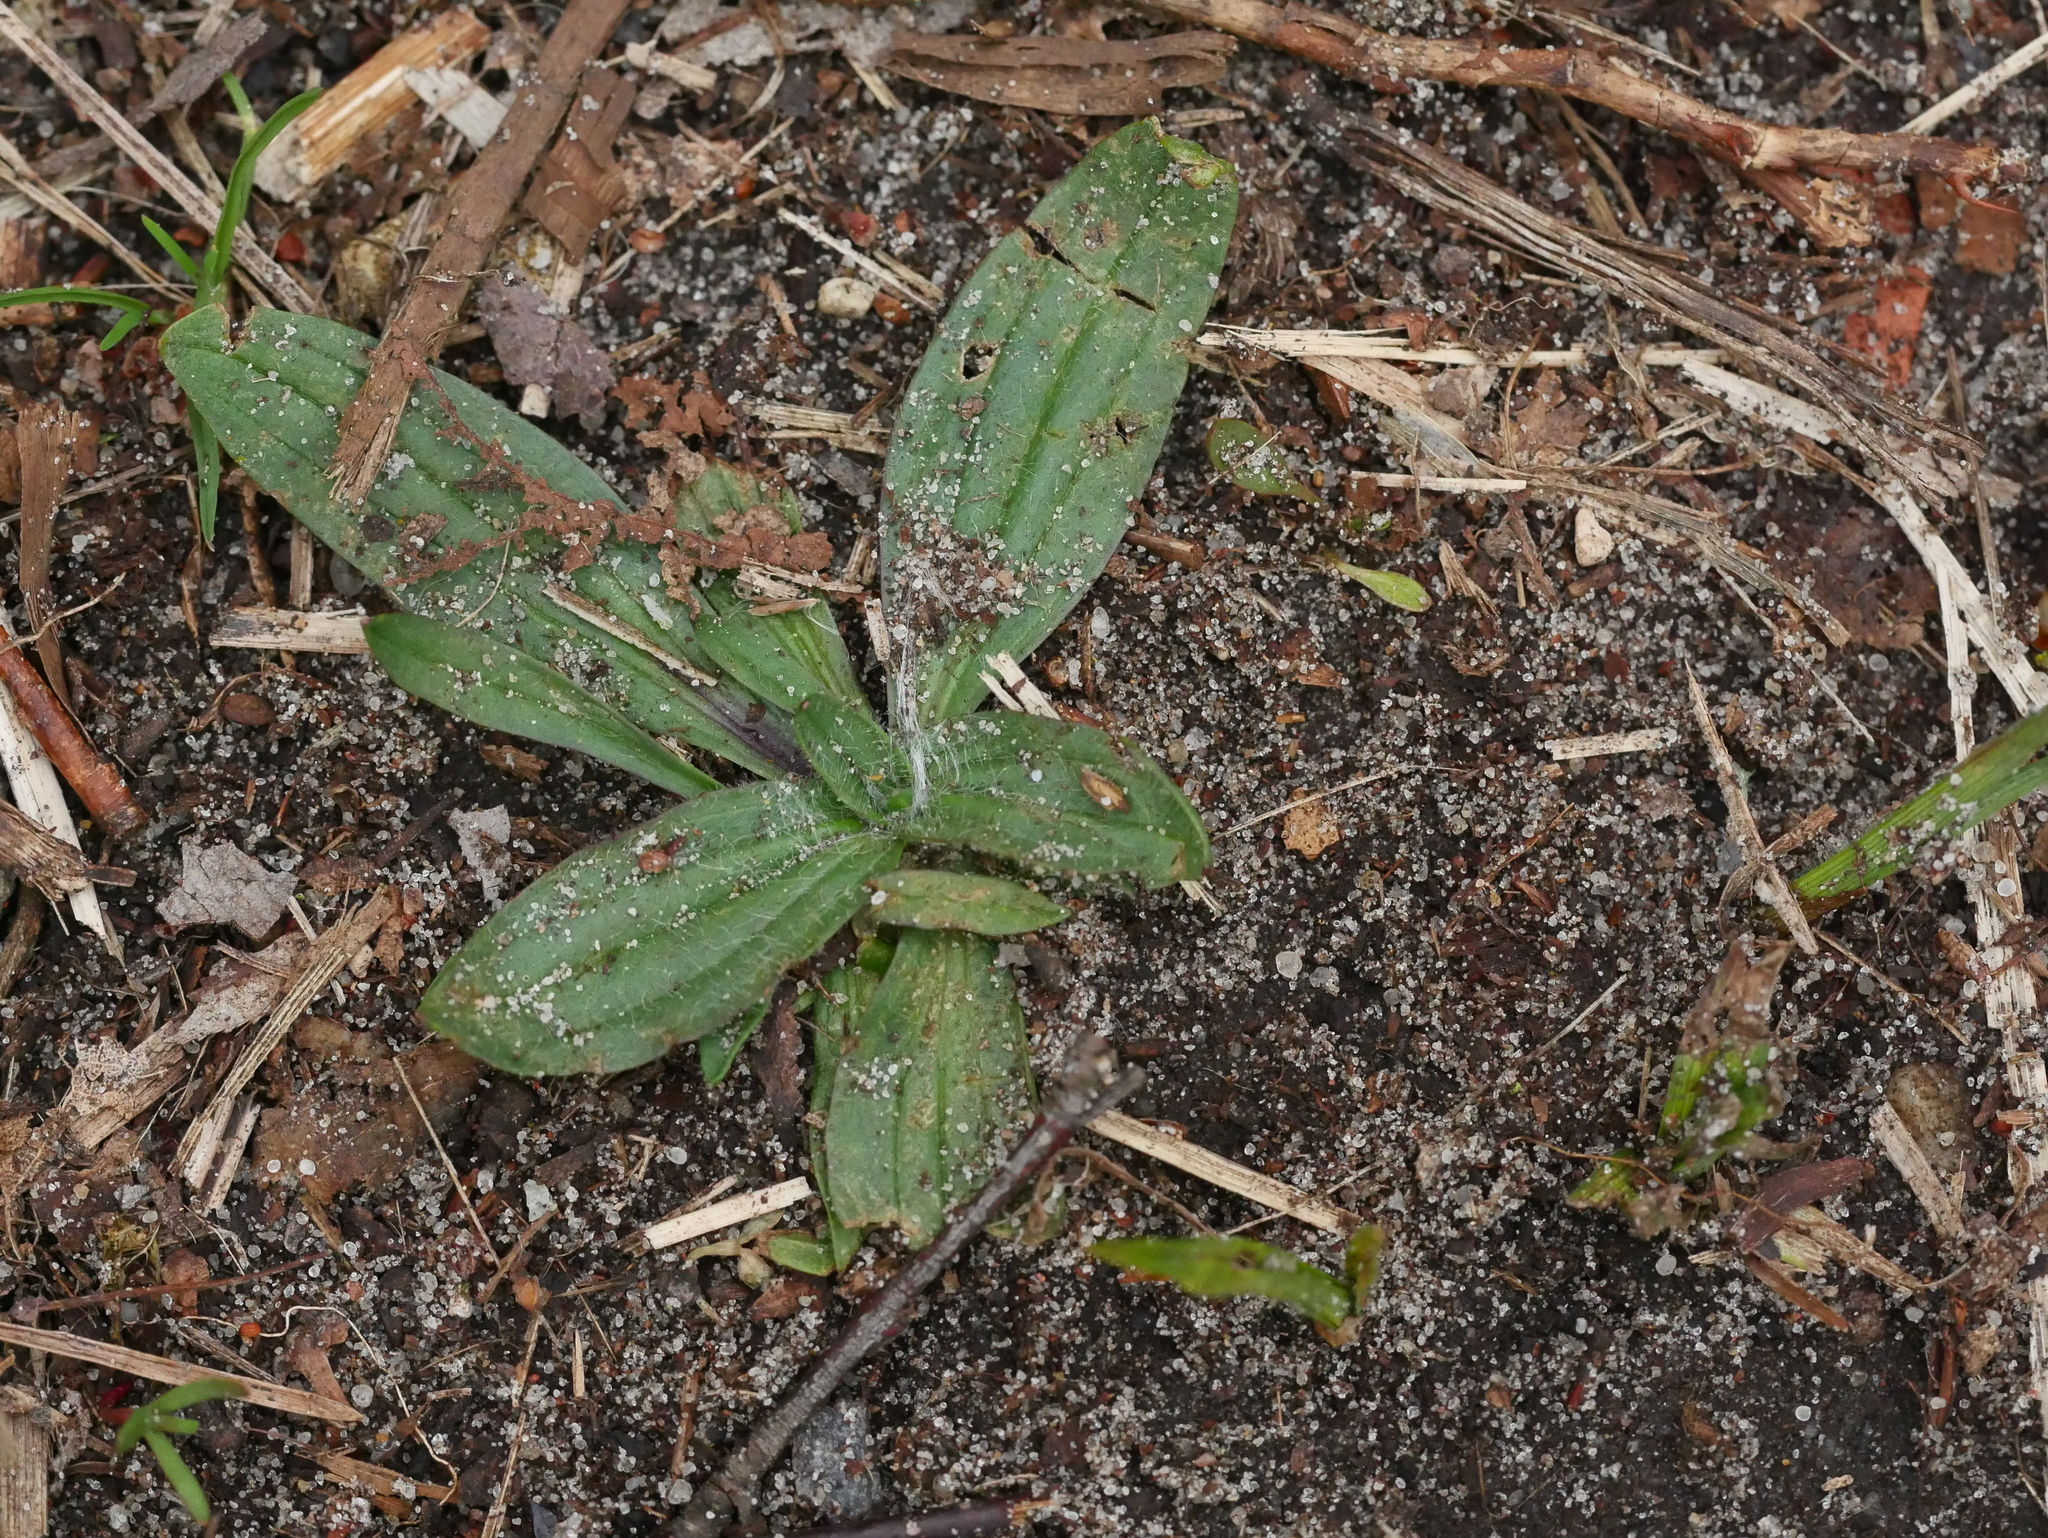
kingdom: Plantae
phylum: Tracheophyta
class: Magnoliopsida
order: Lamiales
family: Plantaginaceae
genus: Plantago
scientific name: Plantago lanceolata
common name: Ribwort plantain
